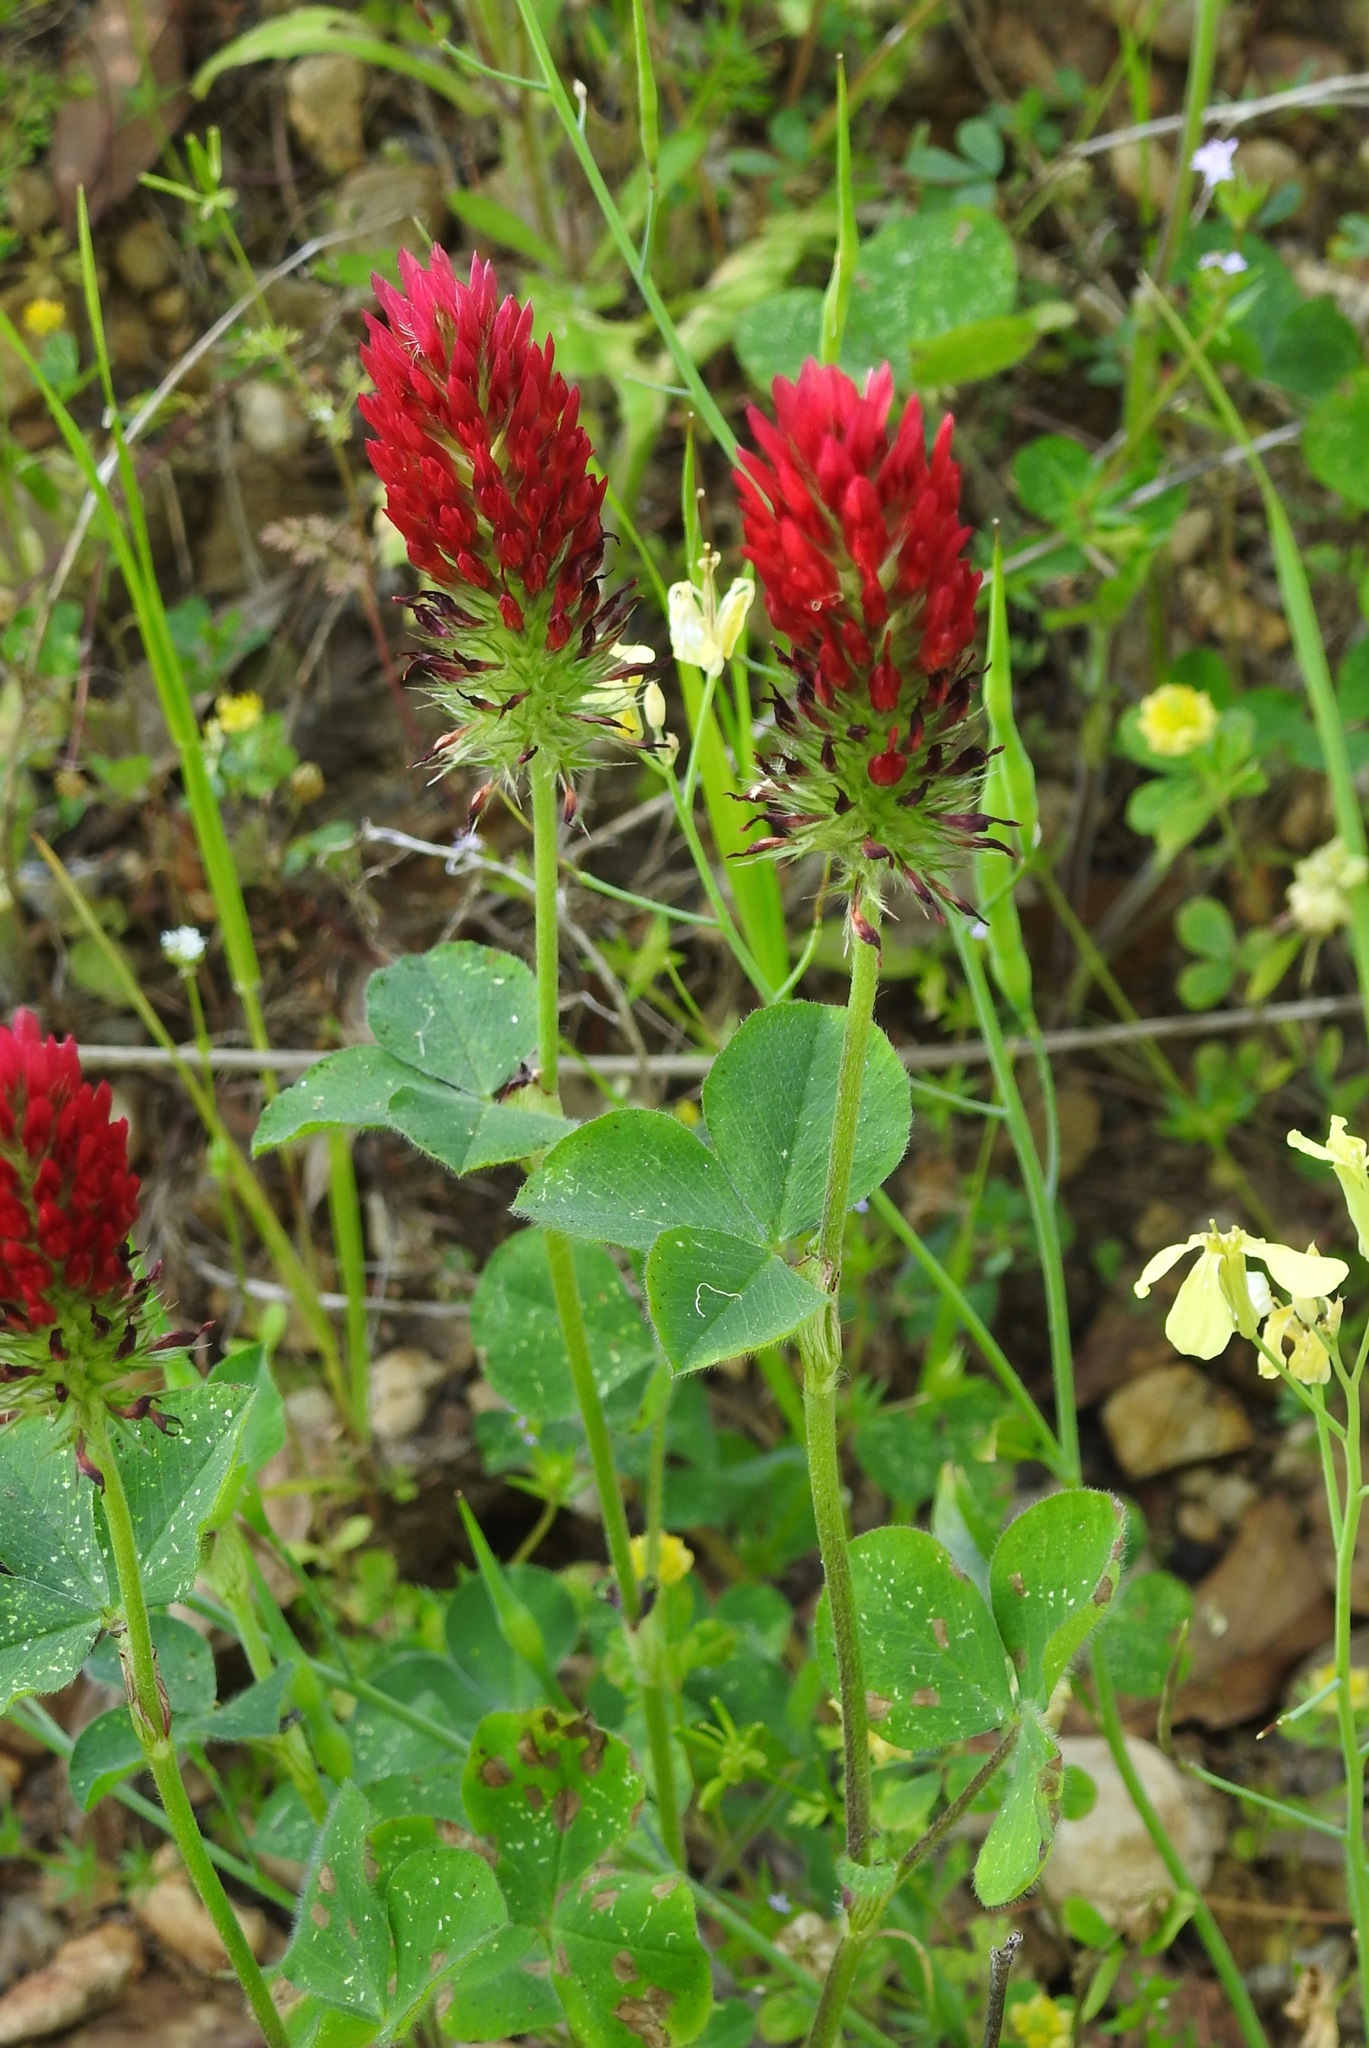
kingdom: Plantae
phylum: Tracheophyta
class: Magnoliopsida
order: Fabales
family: Fabaceae
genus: Trifolium
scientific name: Trifolium incarnatum
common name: Crimson clover
